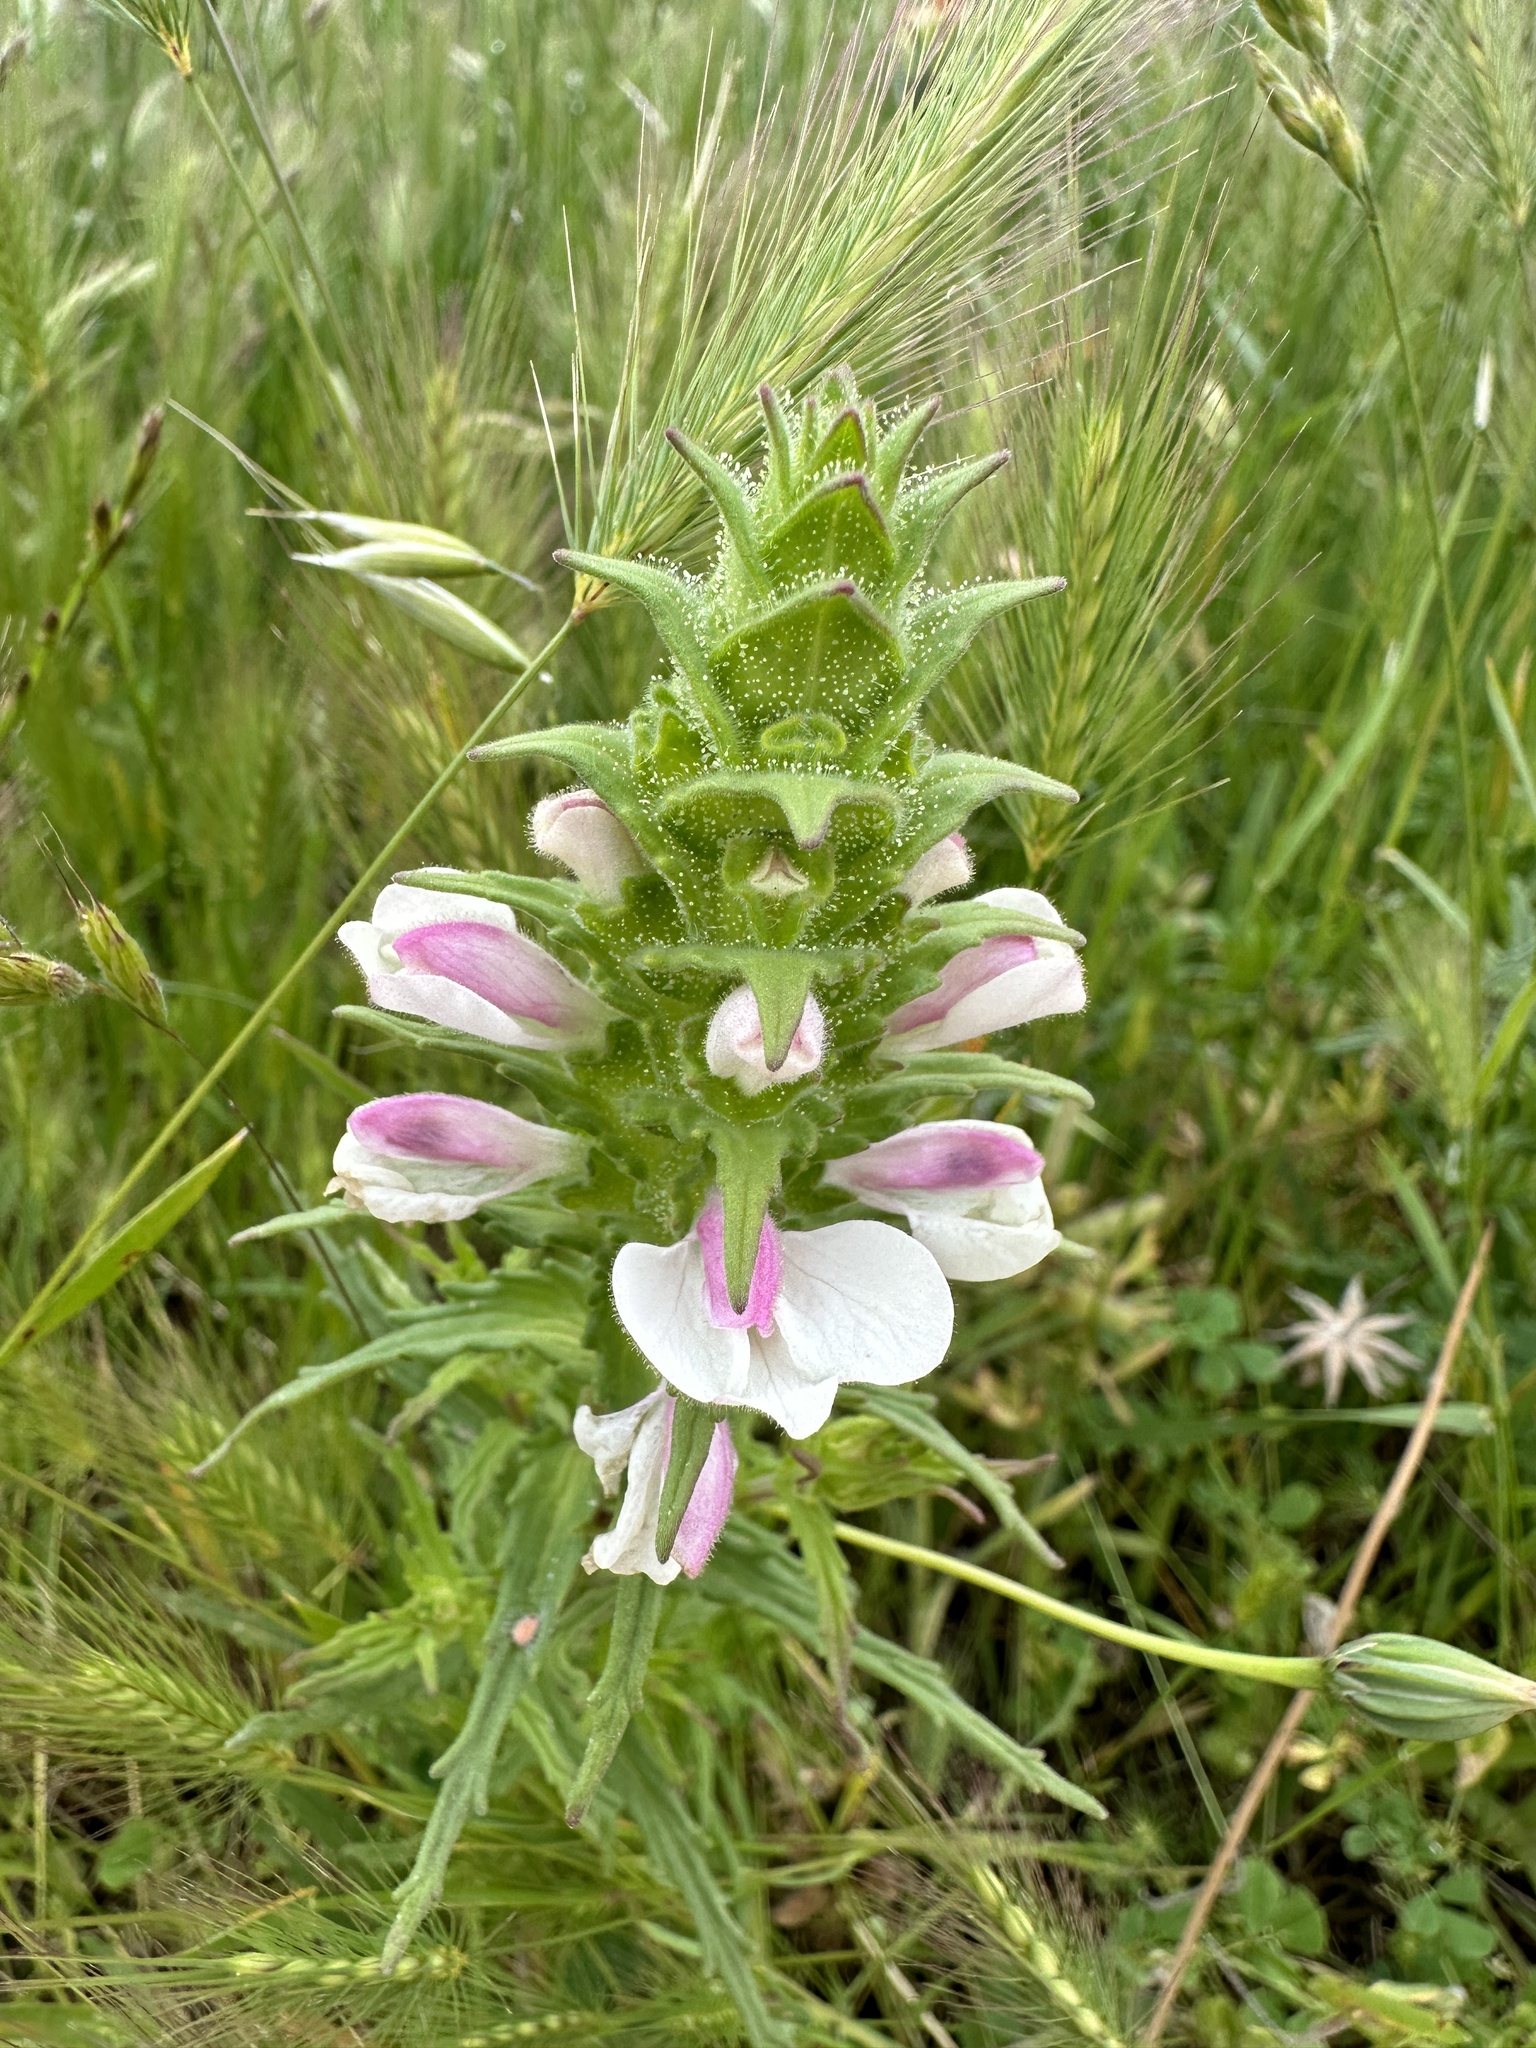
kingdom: Plantae
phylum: Tracheophyta
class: Magnoliopsida
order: Lamiales
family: Orobanchaceae
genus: Bellardia
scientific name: Bellardia trixago
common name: Mediterranean lineseed
